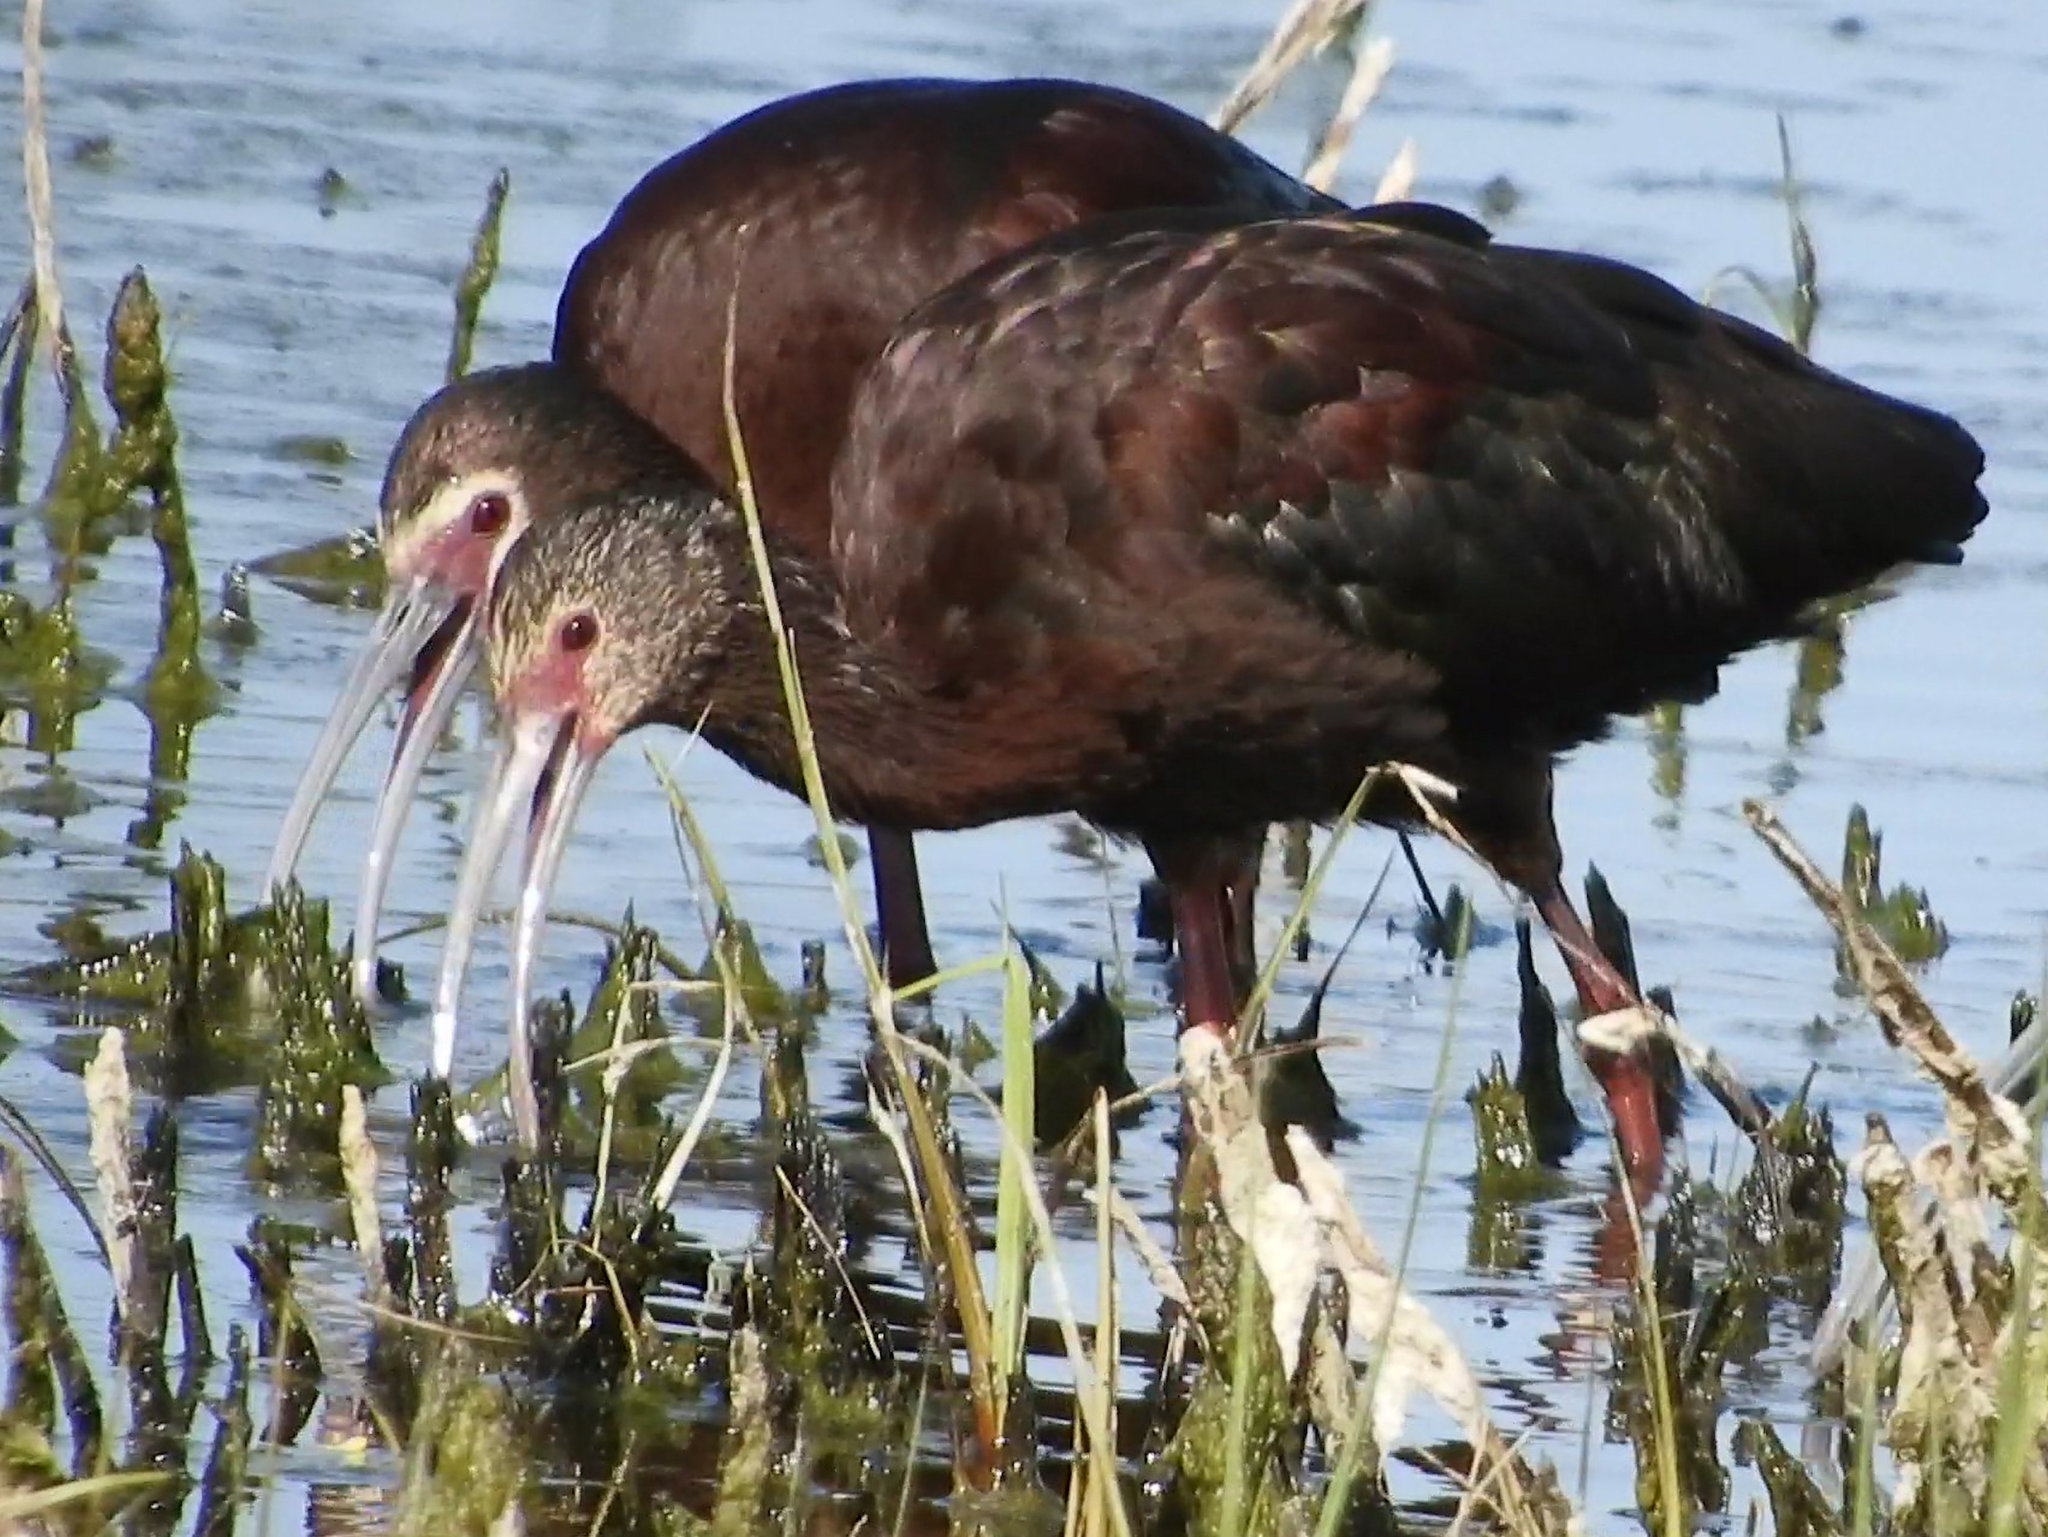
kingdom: Animalia
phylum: Chordata
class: Aves
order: Pelecaniformes
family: Threskiornithidae
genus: Plegadis
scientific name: Plegadis chihi
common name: White-faced ibis
